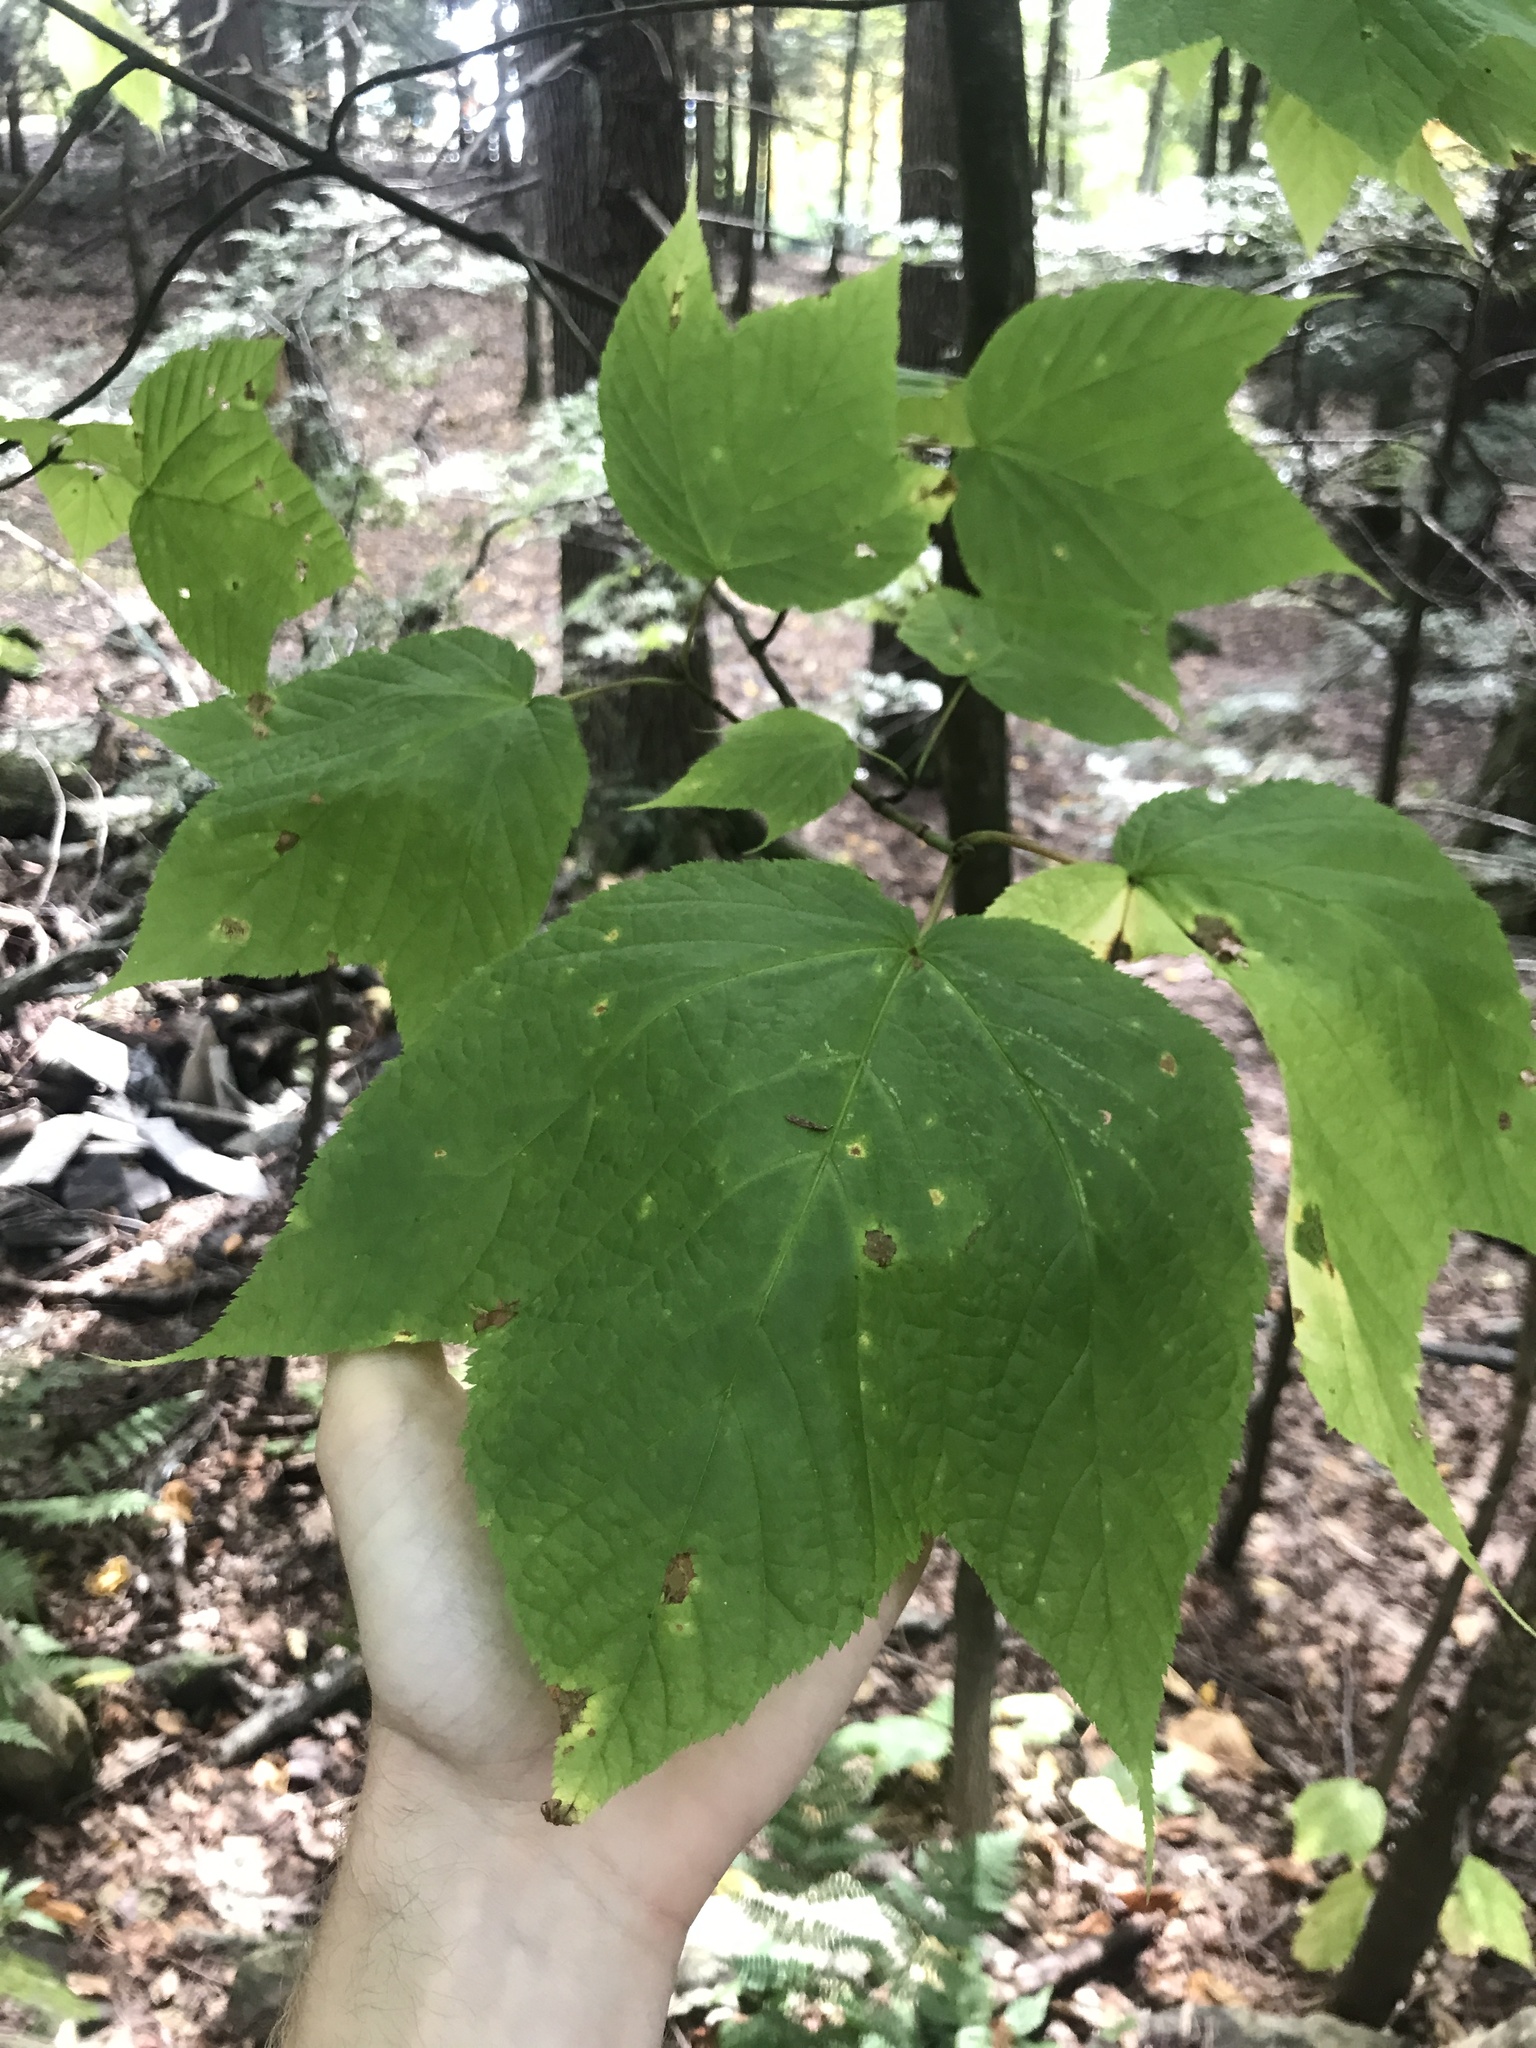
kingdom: Plantae
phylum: Tracheophyta
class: Magnoliopsida
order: Sapindales
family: Sapindaceae
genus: Acer
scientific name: Acer pensylvanicum
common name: Moosewood
